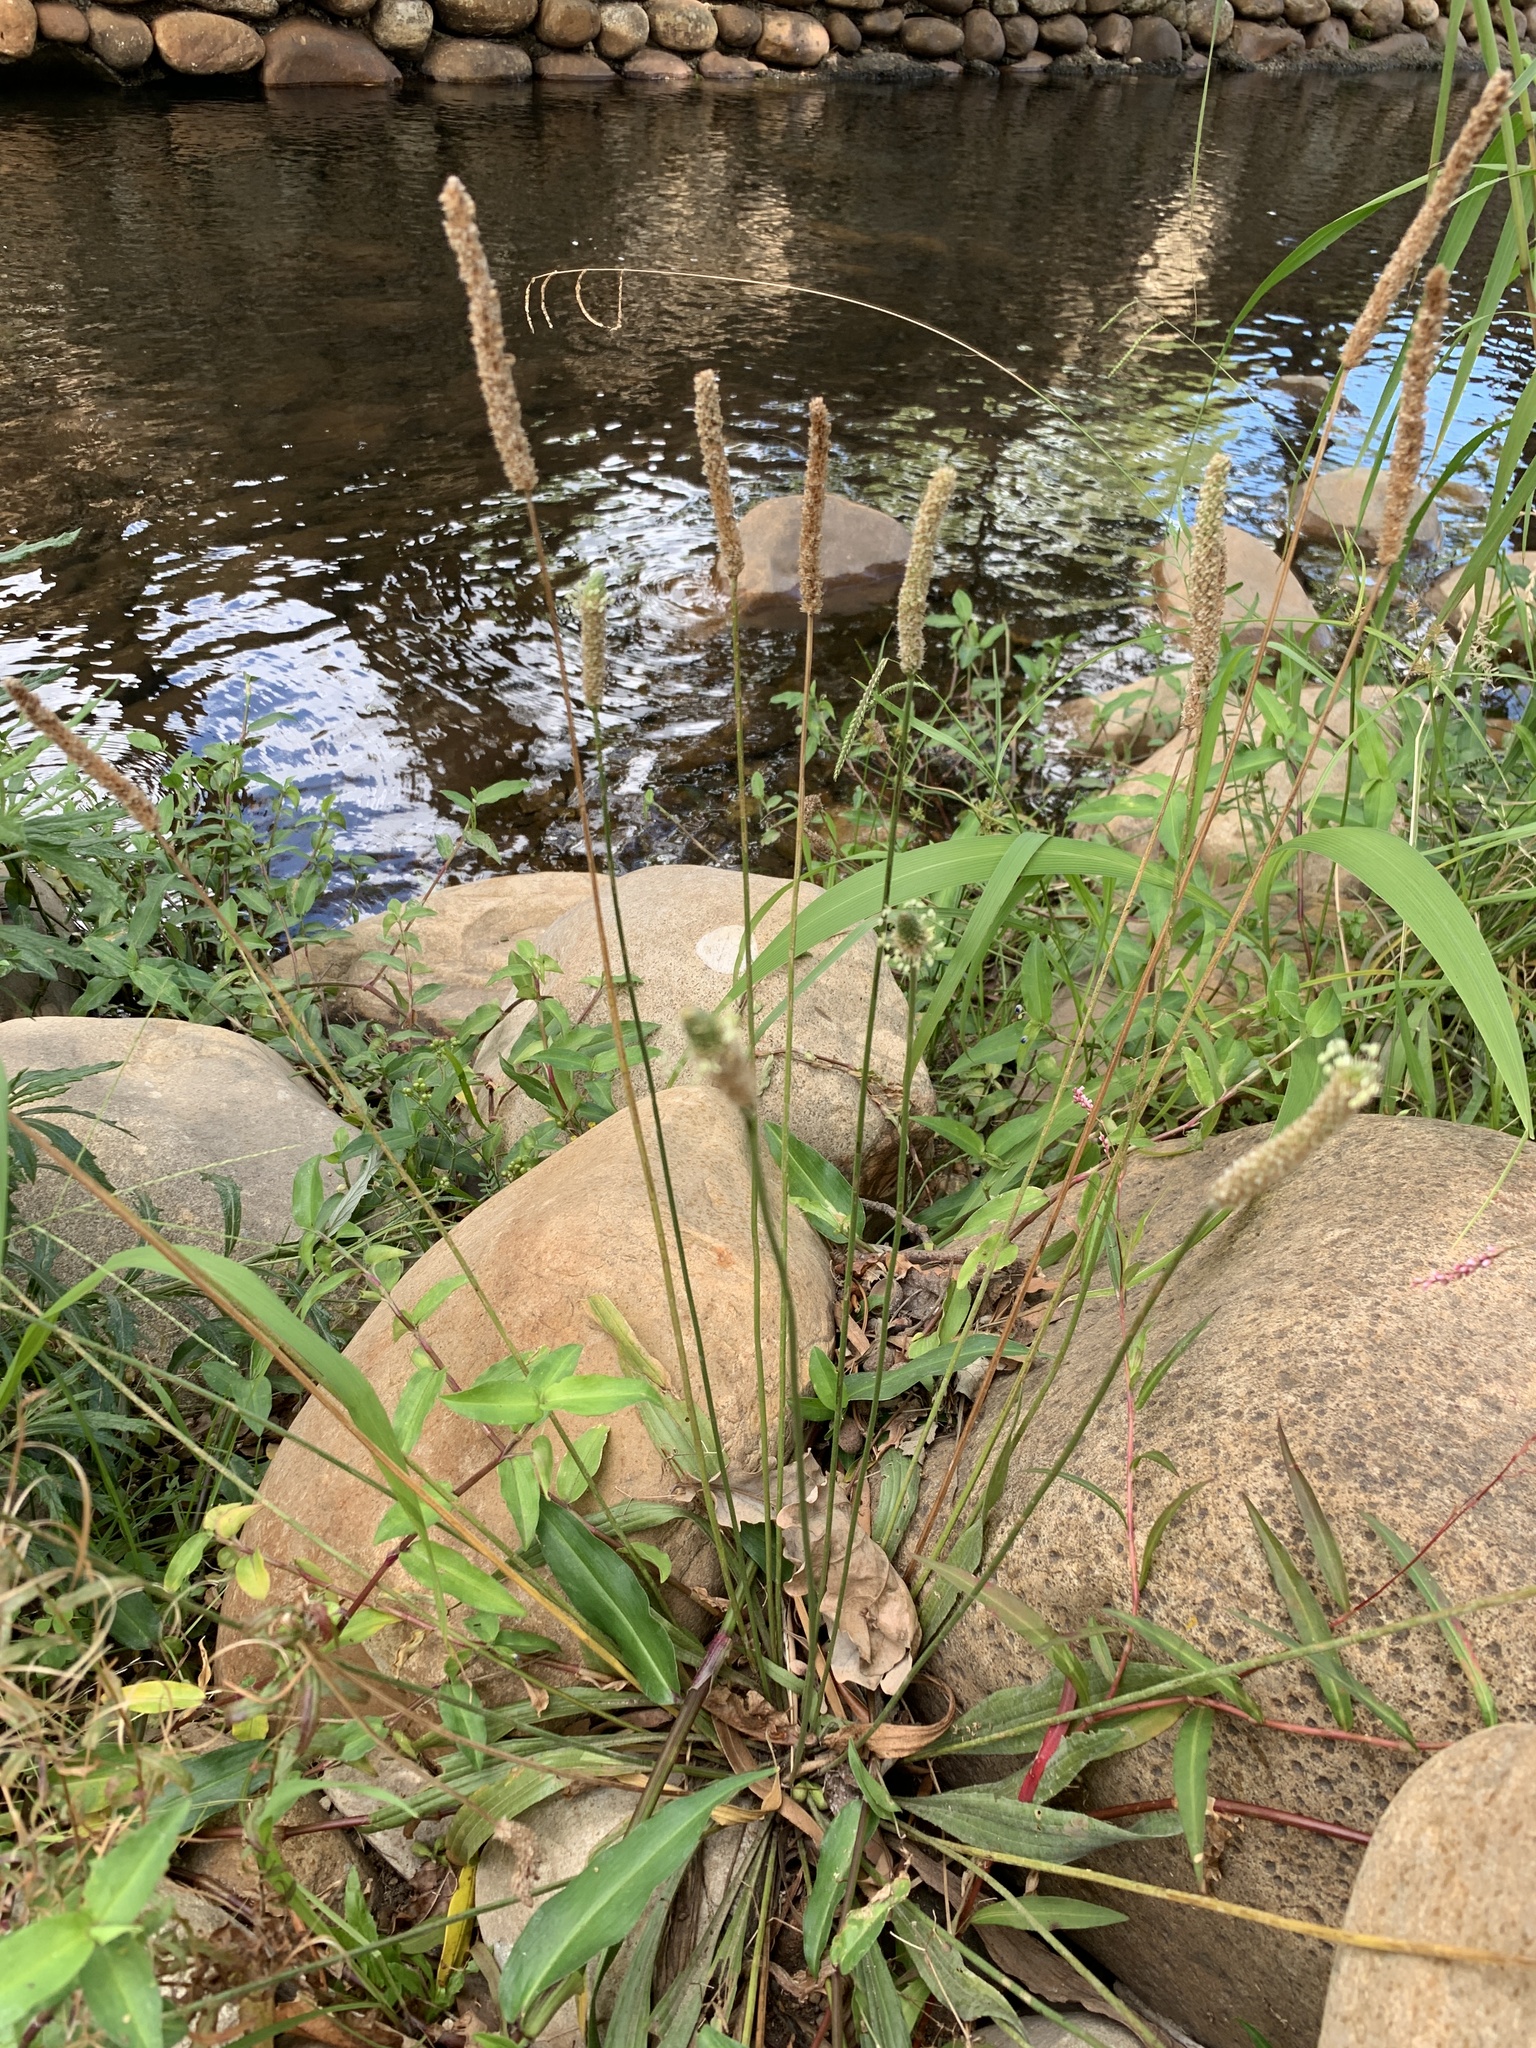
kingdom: Plantae
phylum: Tracheophyta
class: Magnoliopsida
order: Lamiales
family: Plantaginaceae
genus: Plantago
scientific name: Plantago lanceolata
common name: Ribwort plantain
